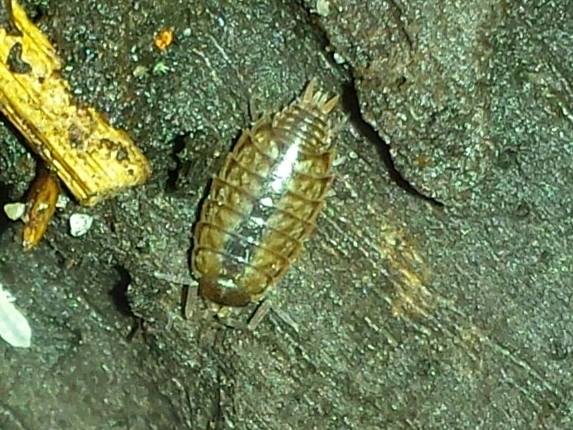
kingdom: Animalia
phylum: Arthropoda
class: Malacostraca
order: Isopoda
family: Philosciidae
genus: Philoscia
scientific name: Philoscia muscorum
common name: Common striped woodlouse
